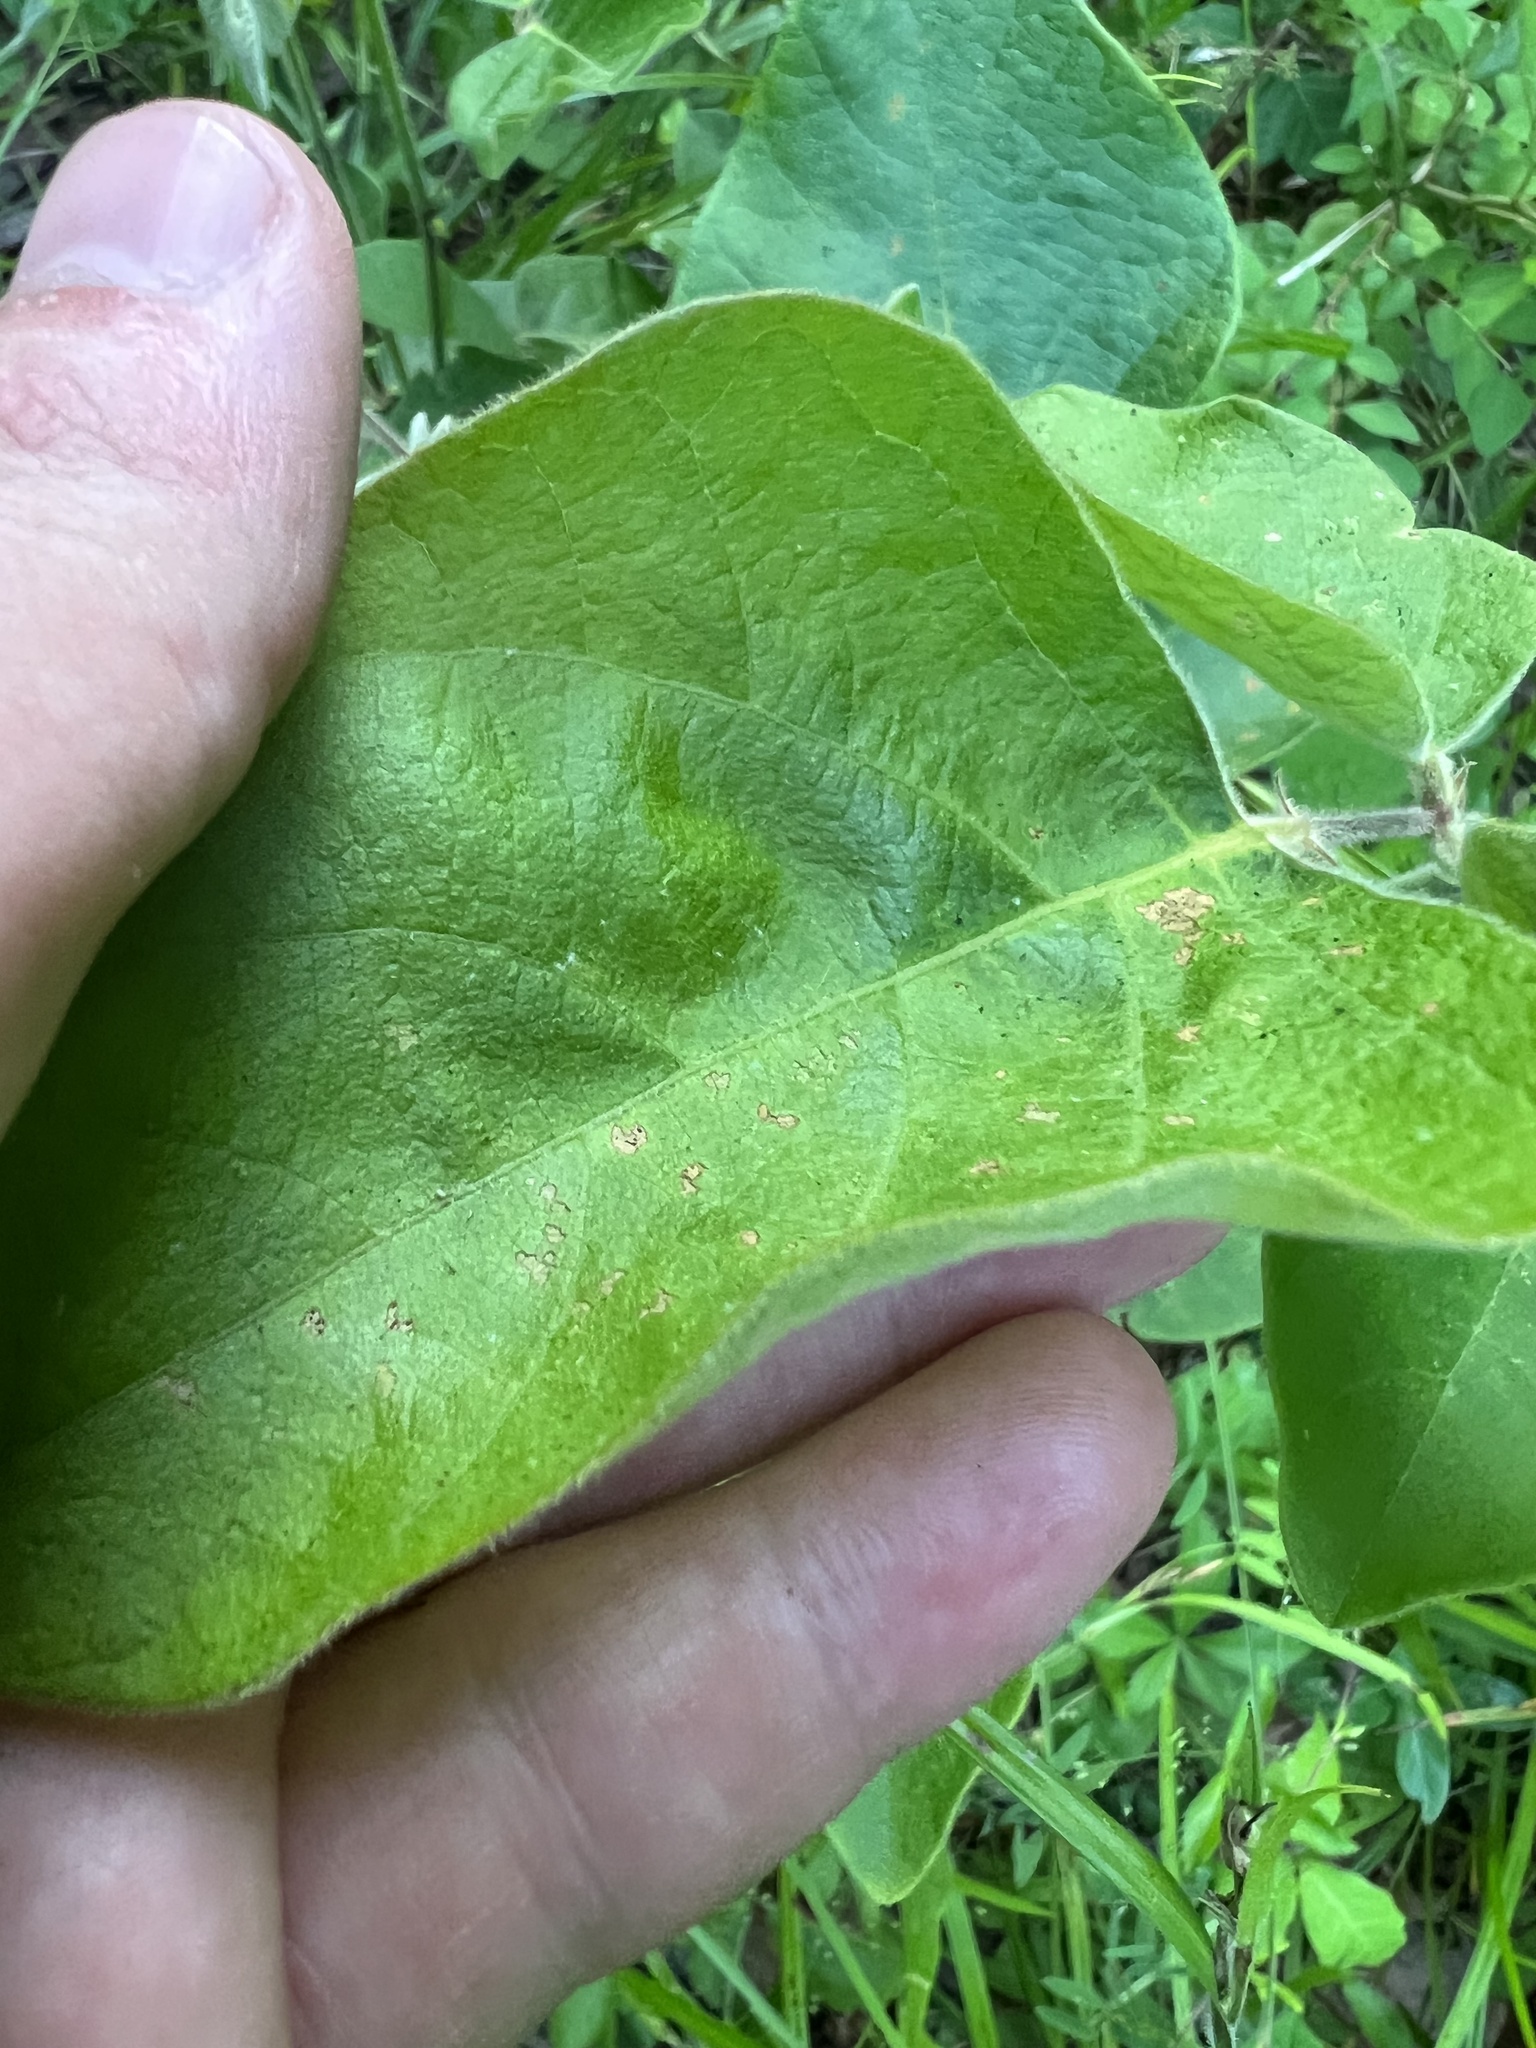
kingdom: Plantae
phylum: Tracheophyta
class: Magnoliopsida
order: Fabales
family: Fabaceae
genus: Desmodium
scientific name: Desmodium viridiflorum
